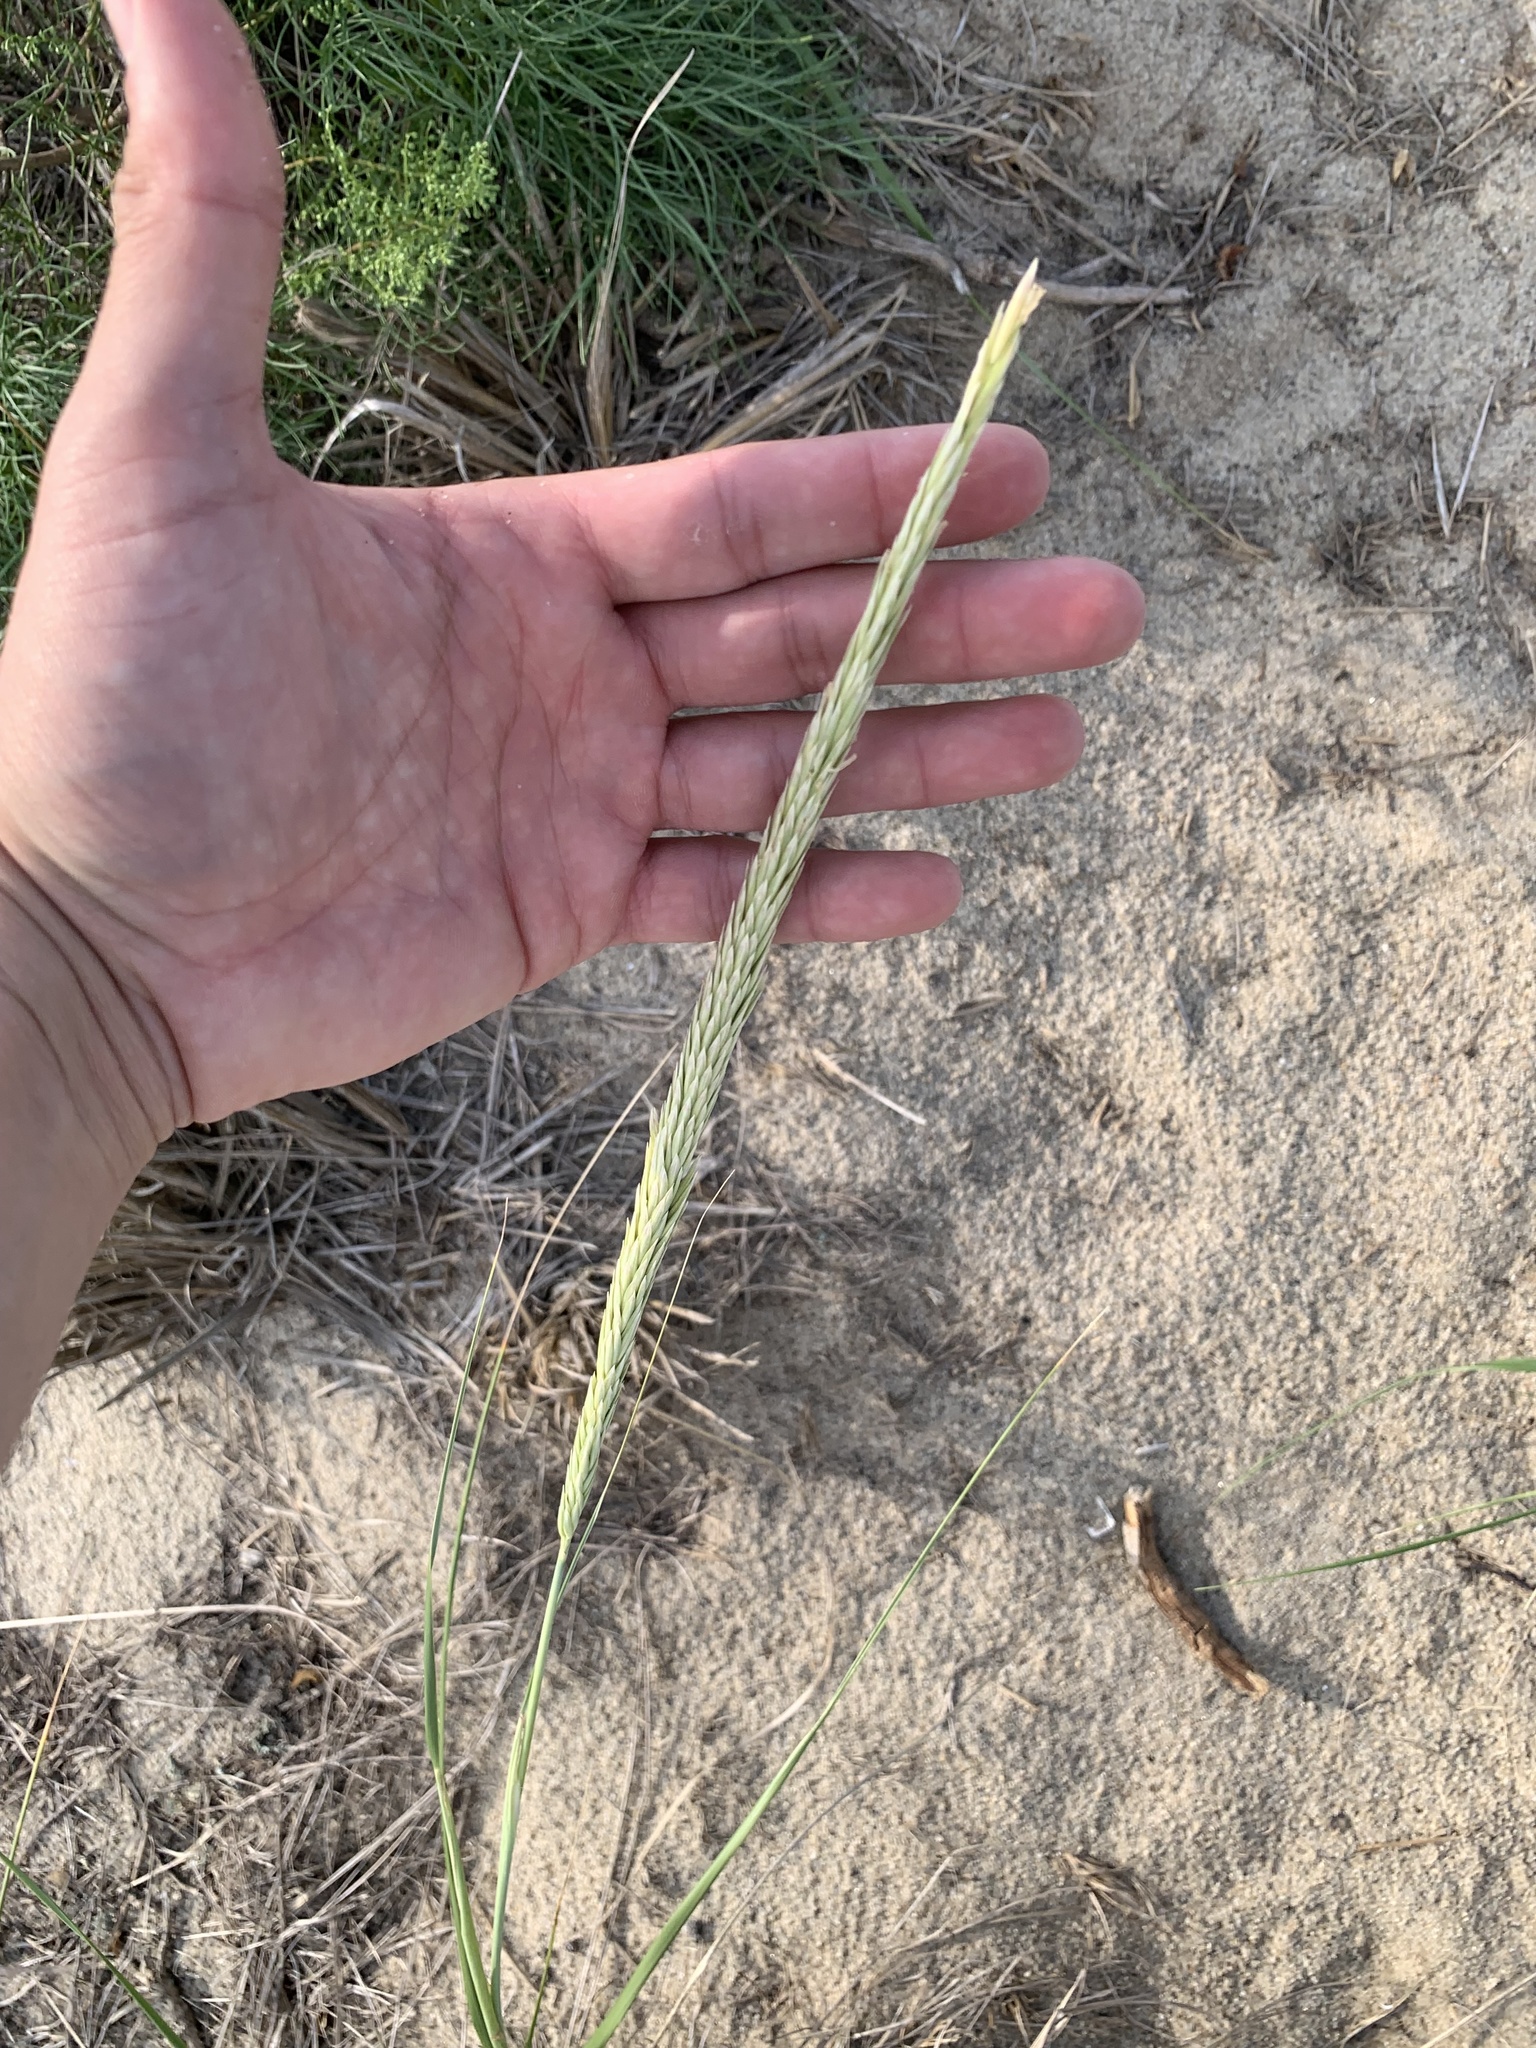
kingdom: Plantae
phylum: Tracheophyta
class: Liliopsida
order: Poales
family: Poaceae
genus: Calamagrostis
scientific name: Calamagrostis breviligulata
